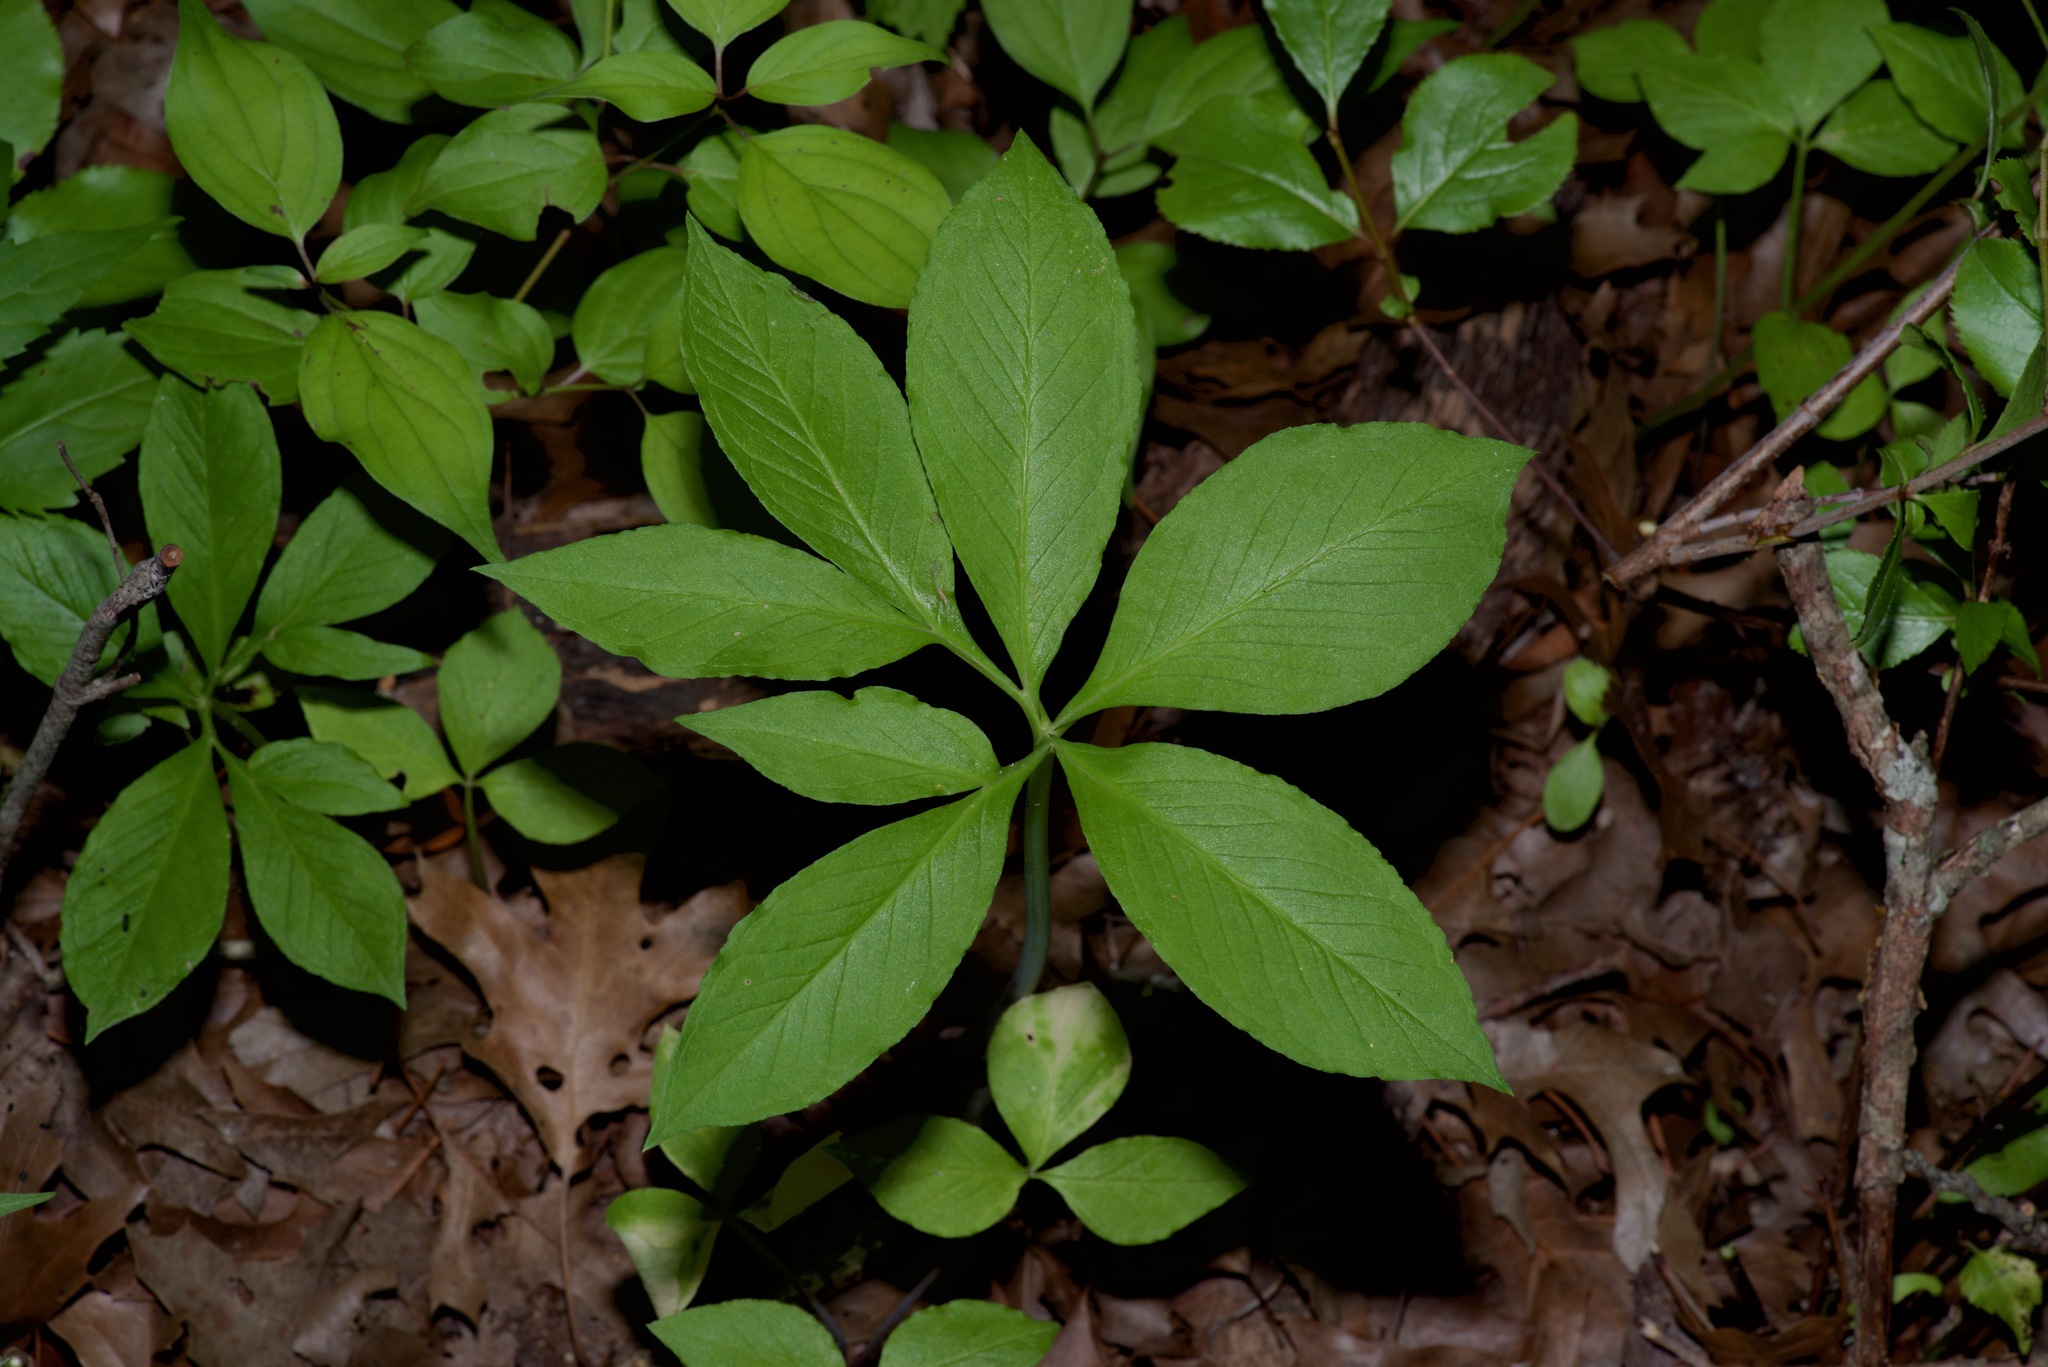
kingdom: Plantae
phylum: Tracheophyta
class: Liliopsida
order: Alismatales
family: Araceae
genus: Arisaema
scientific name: Arisaema dracontium
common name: Dragon-arum
